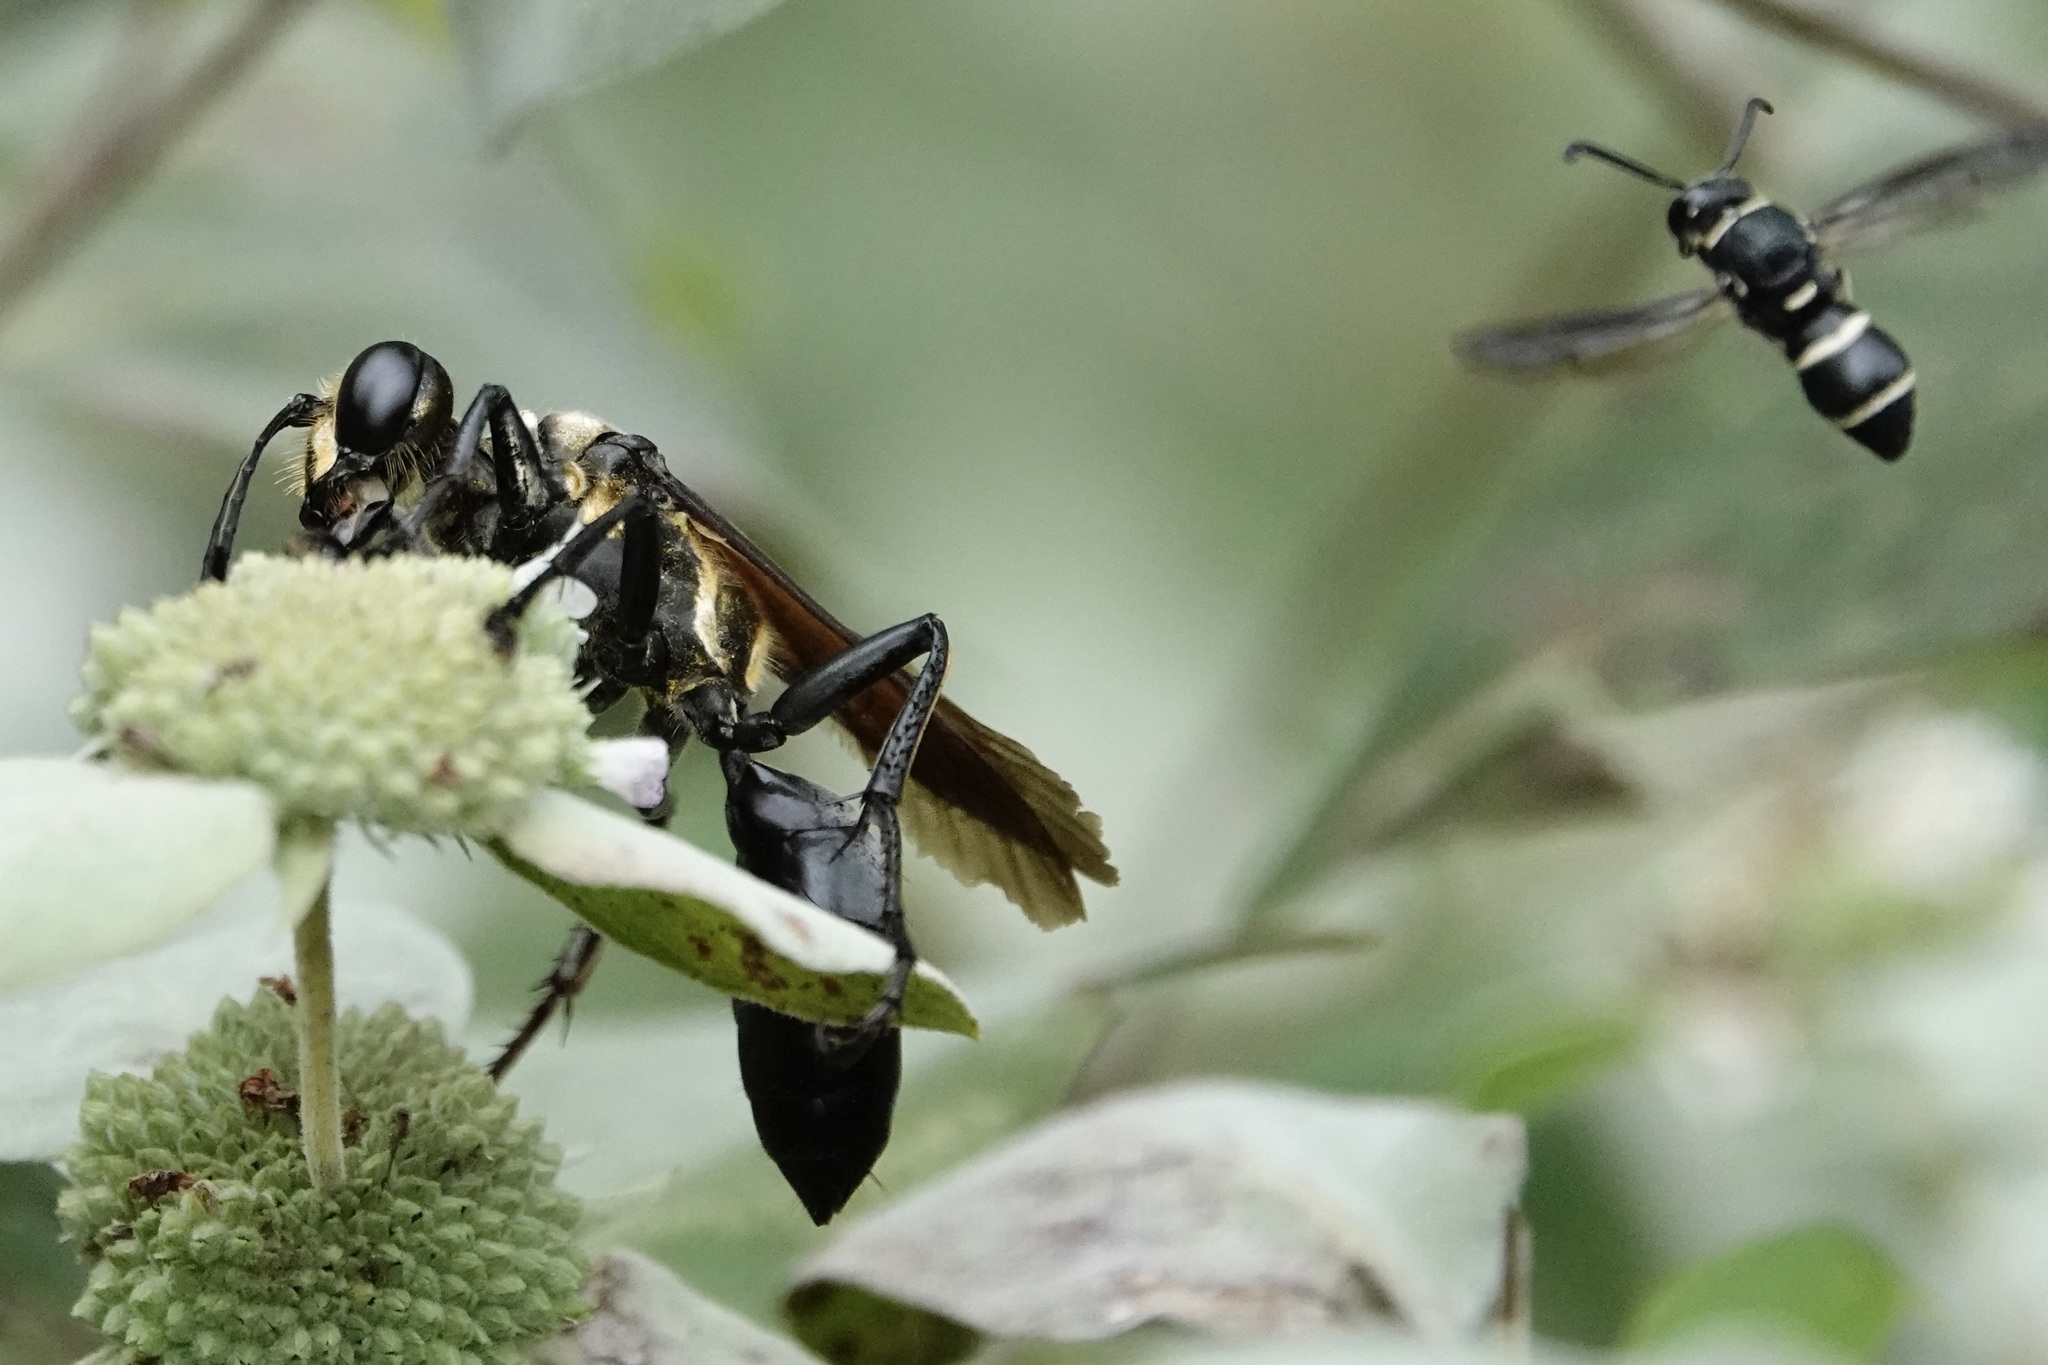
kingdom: Animalia
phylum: Arthropoda
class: Insecta
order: Hymenoptera
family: Sphecidae
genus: Sphex
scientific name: Sphex habenus
